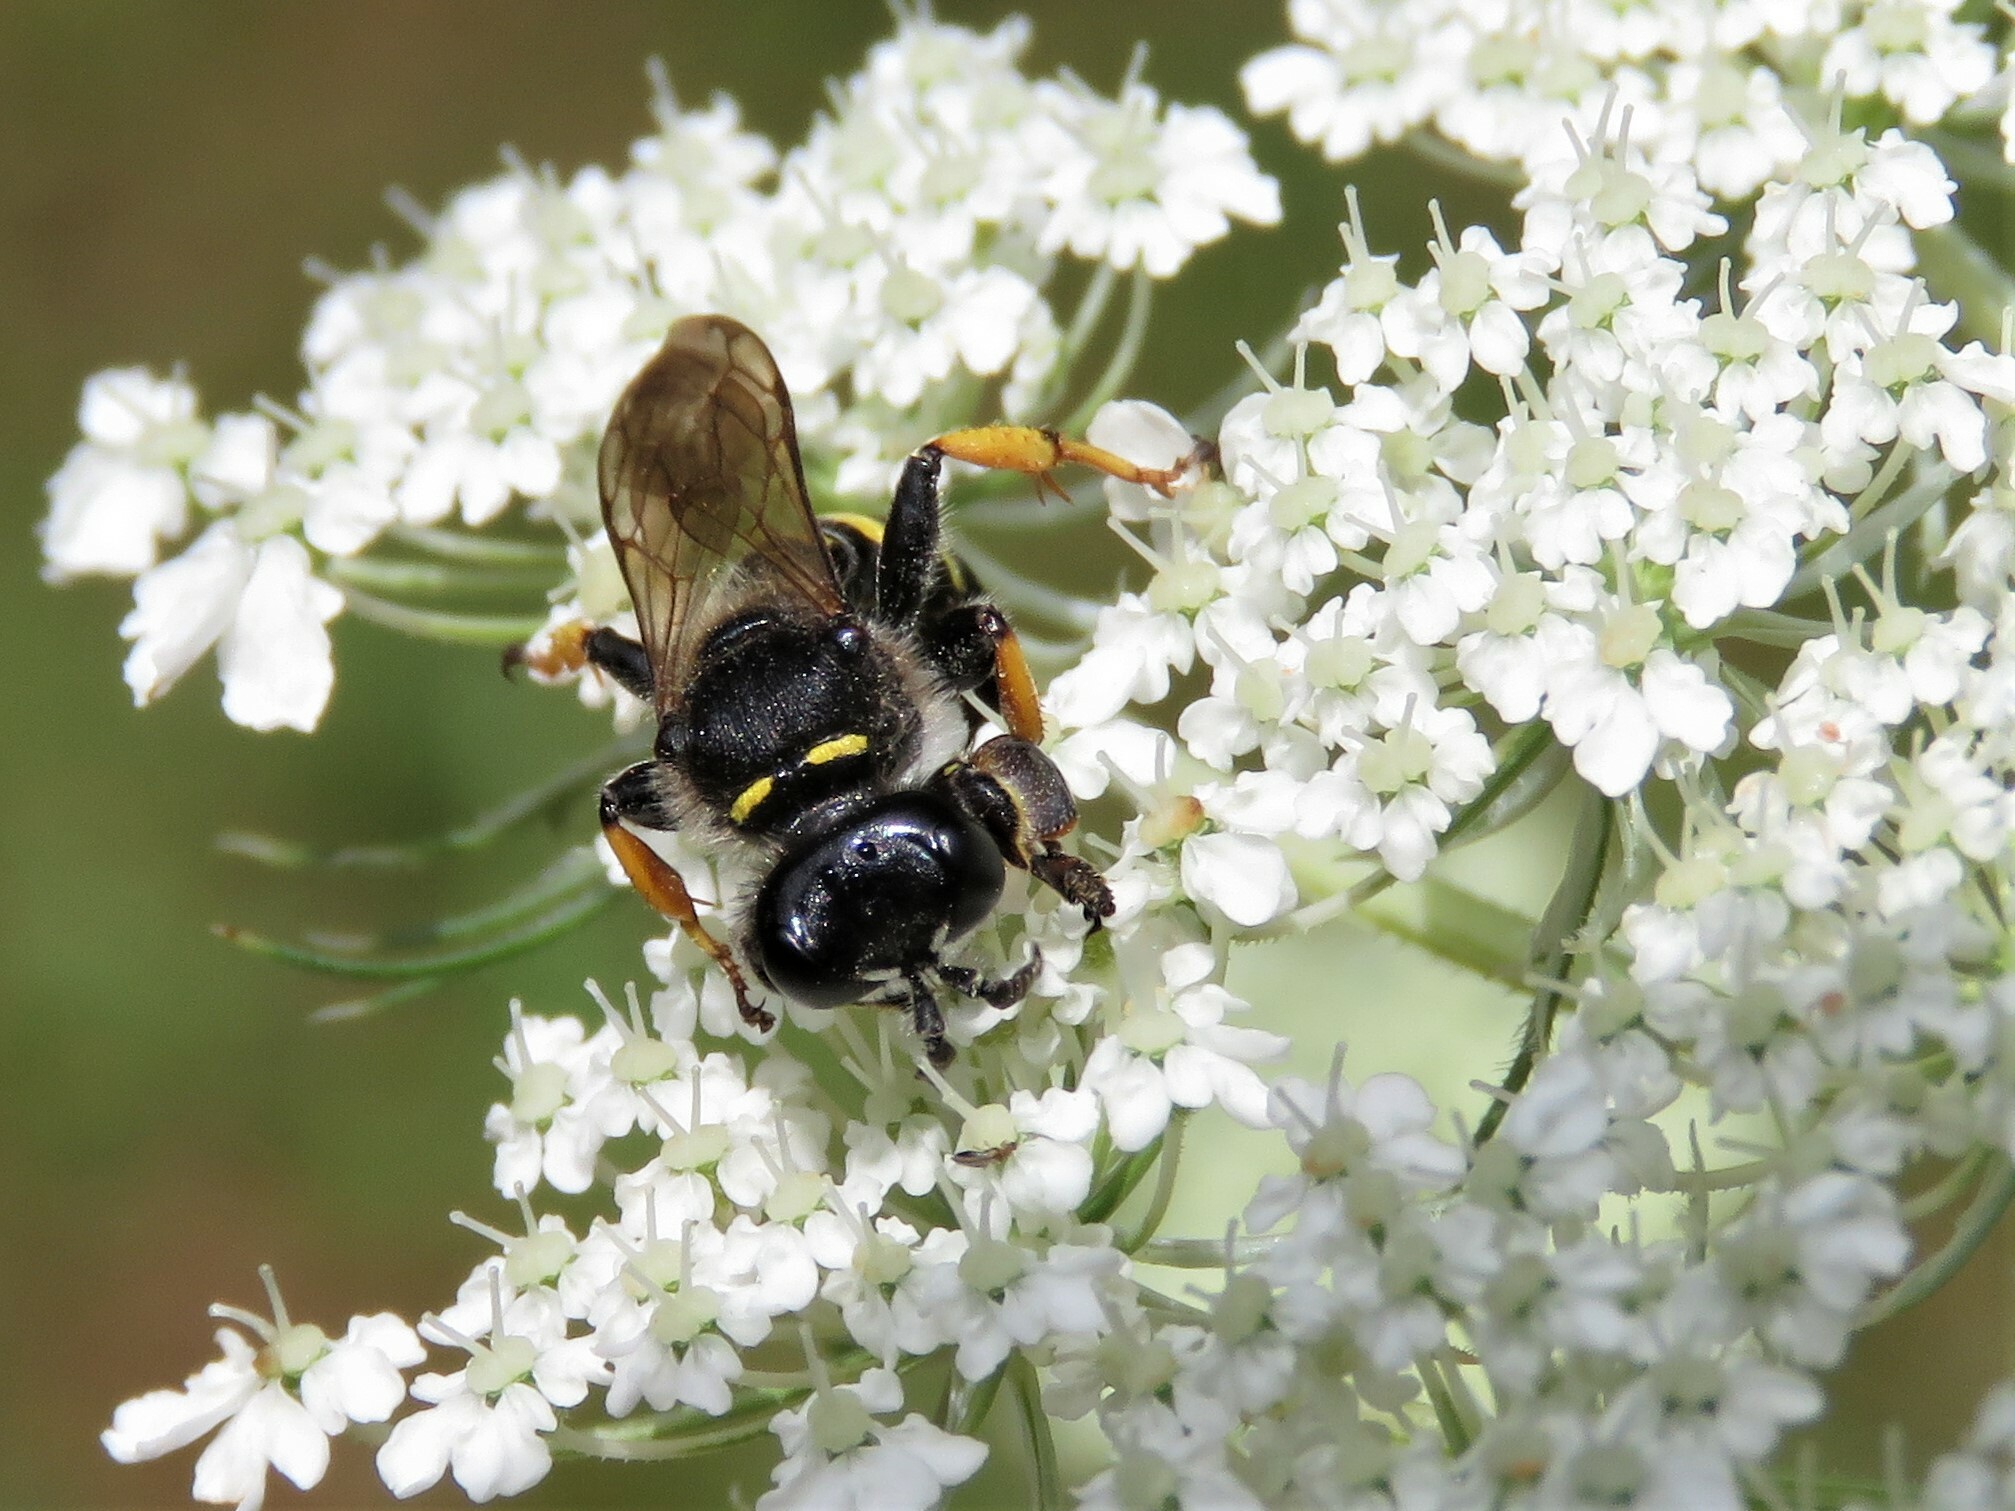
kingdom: Animalia
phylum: Arthropoda
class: Insecta
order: Hymenoptera
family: Crabronidae
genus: Crabro
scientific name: Crabro cribrarius
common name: Slender bodied digger wasp
